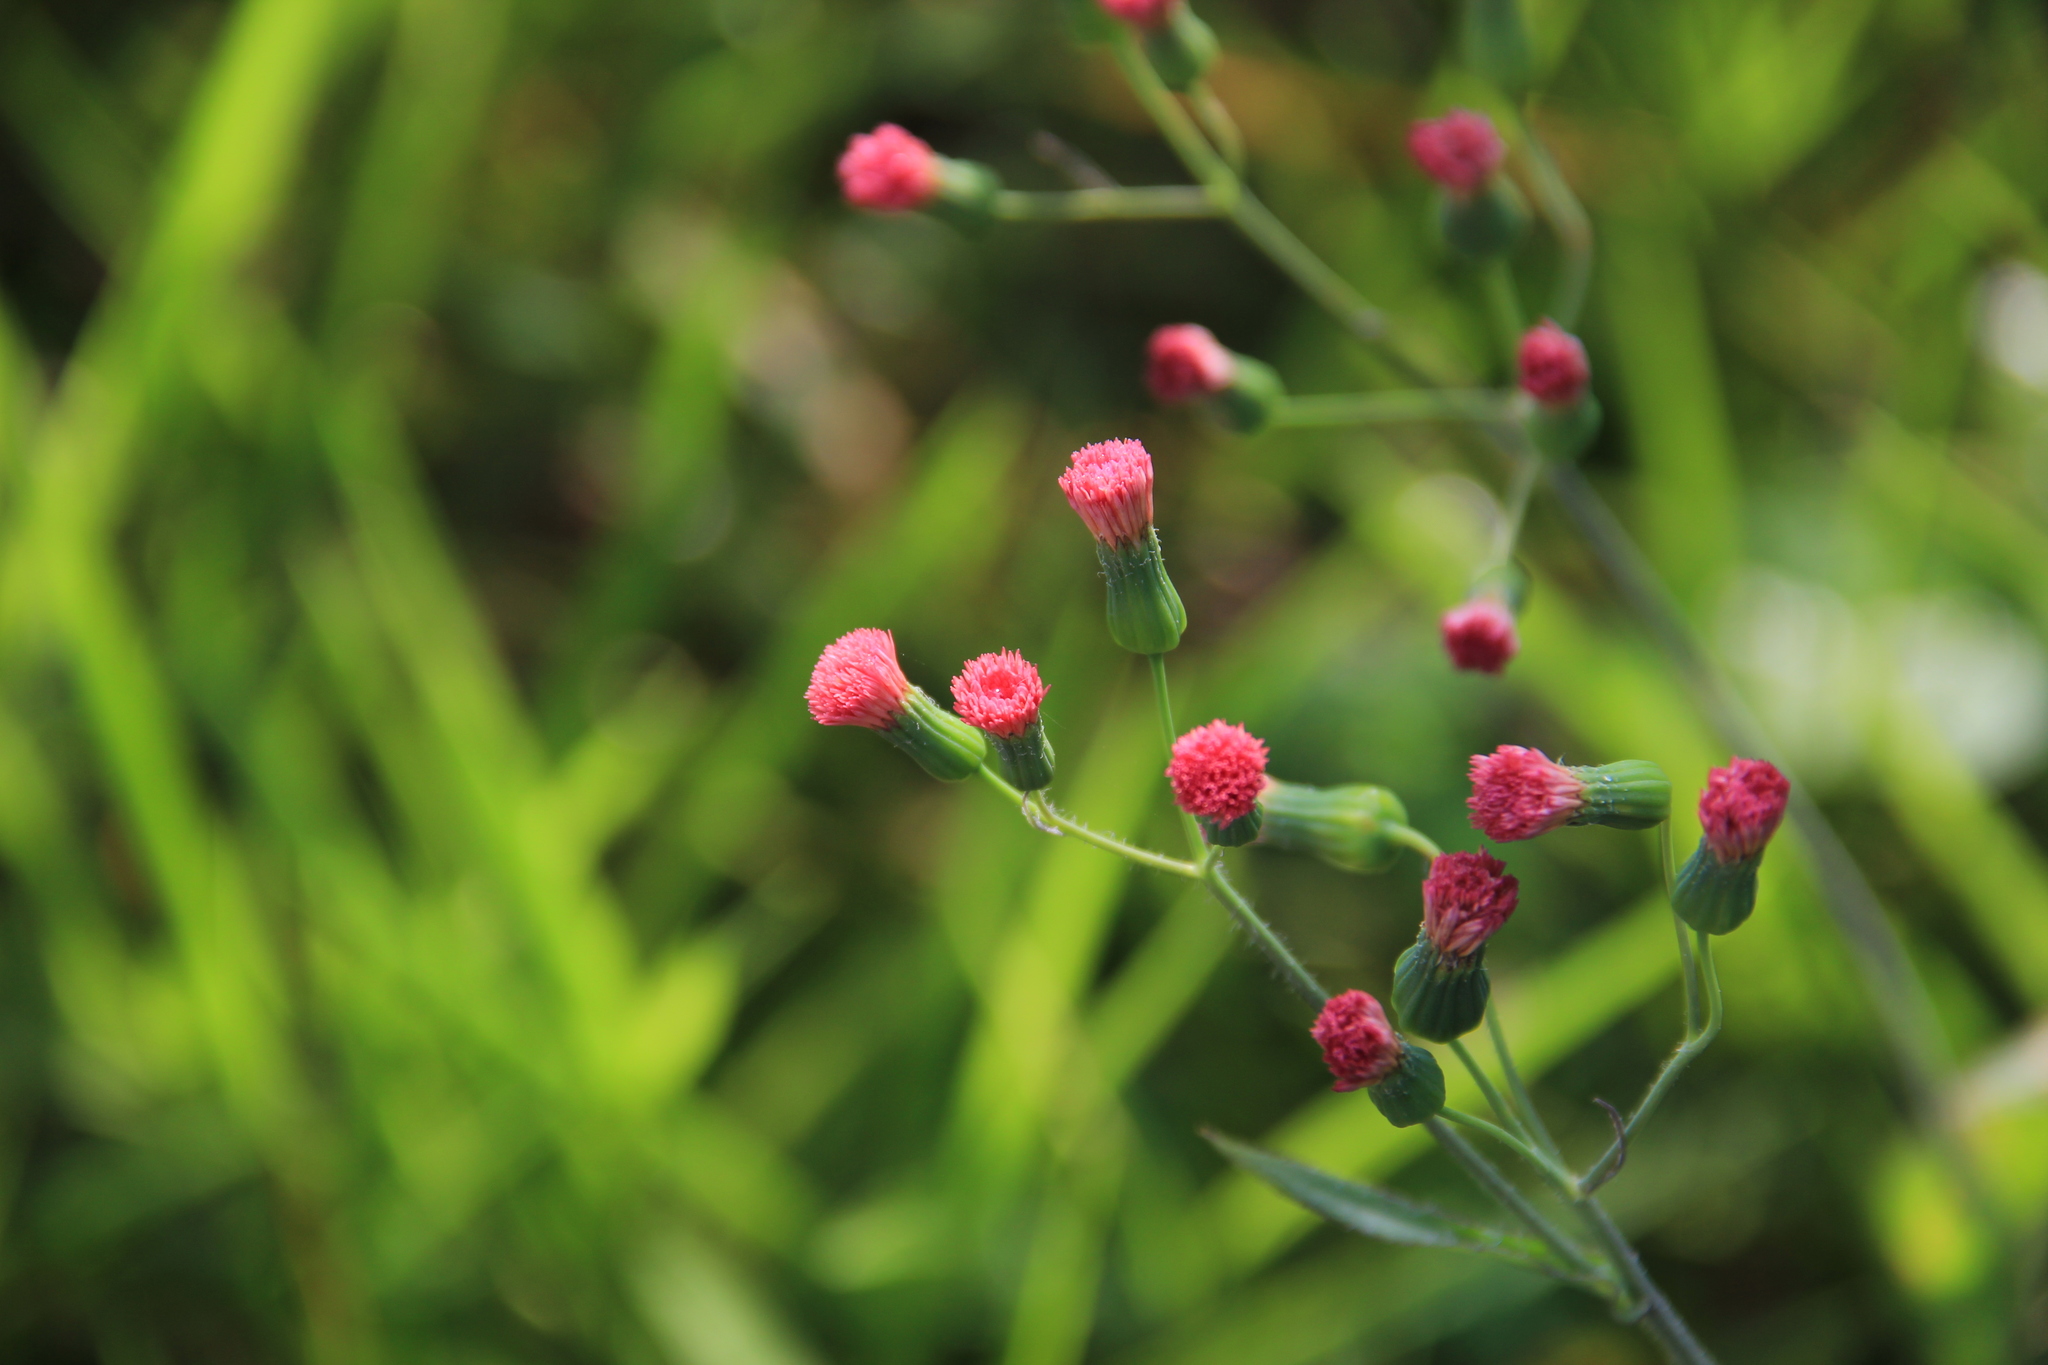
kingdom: Plantae
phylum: Tracheophyta
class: Magnoliopsida
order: Asterales
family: Asteraceae
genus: Emilia
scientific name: Emilia fosbergii
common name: Florida tasselflower
